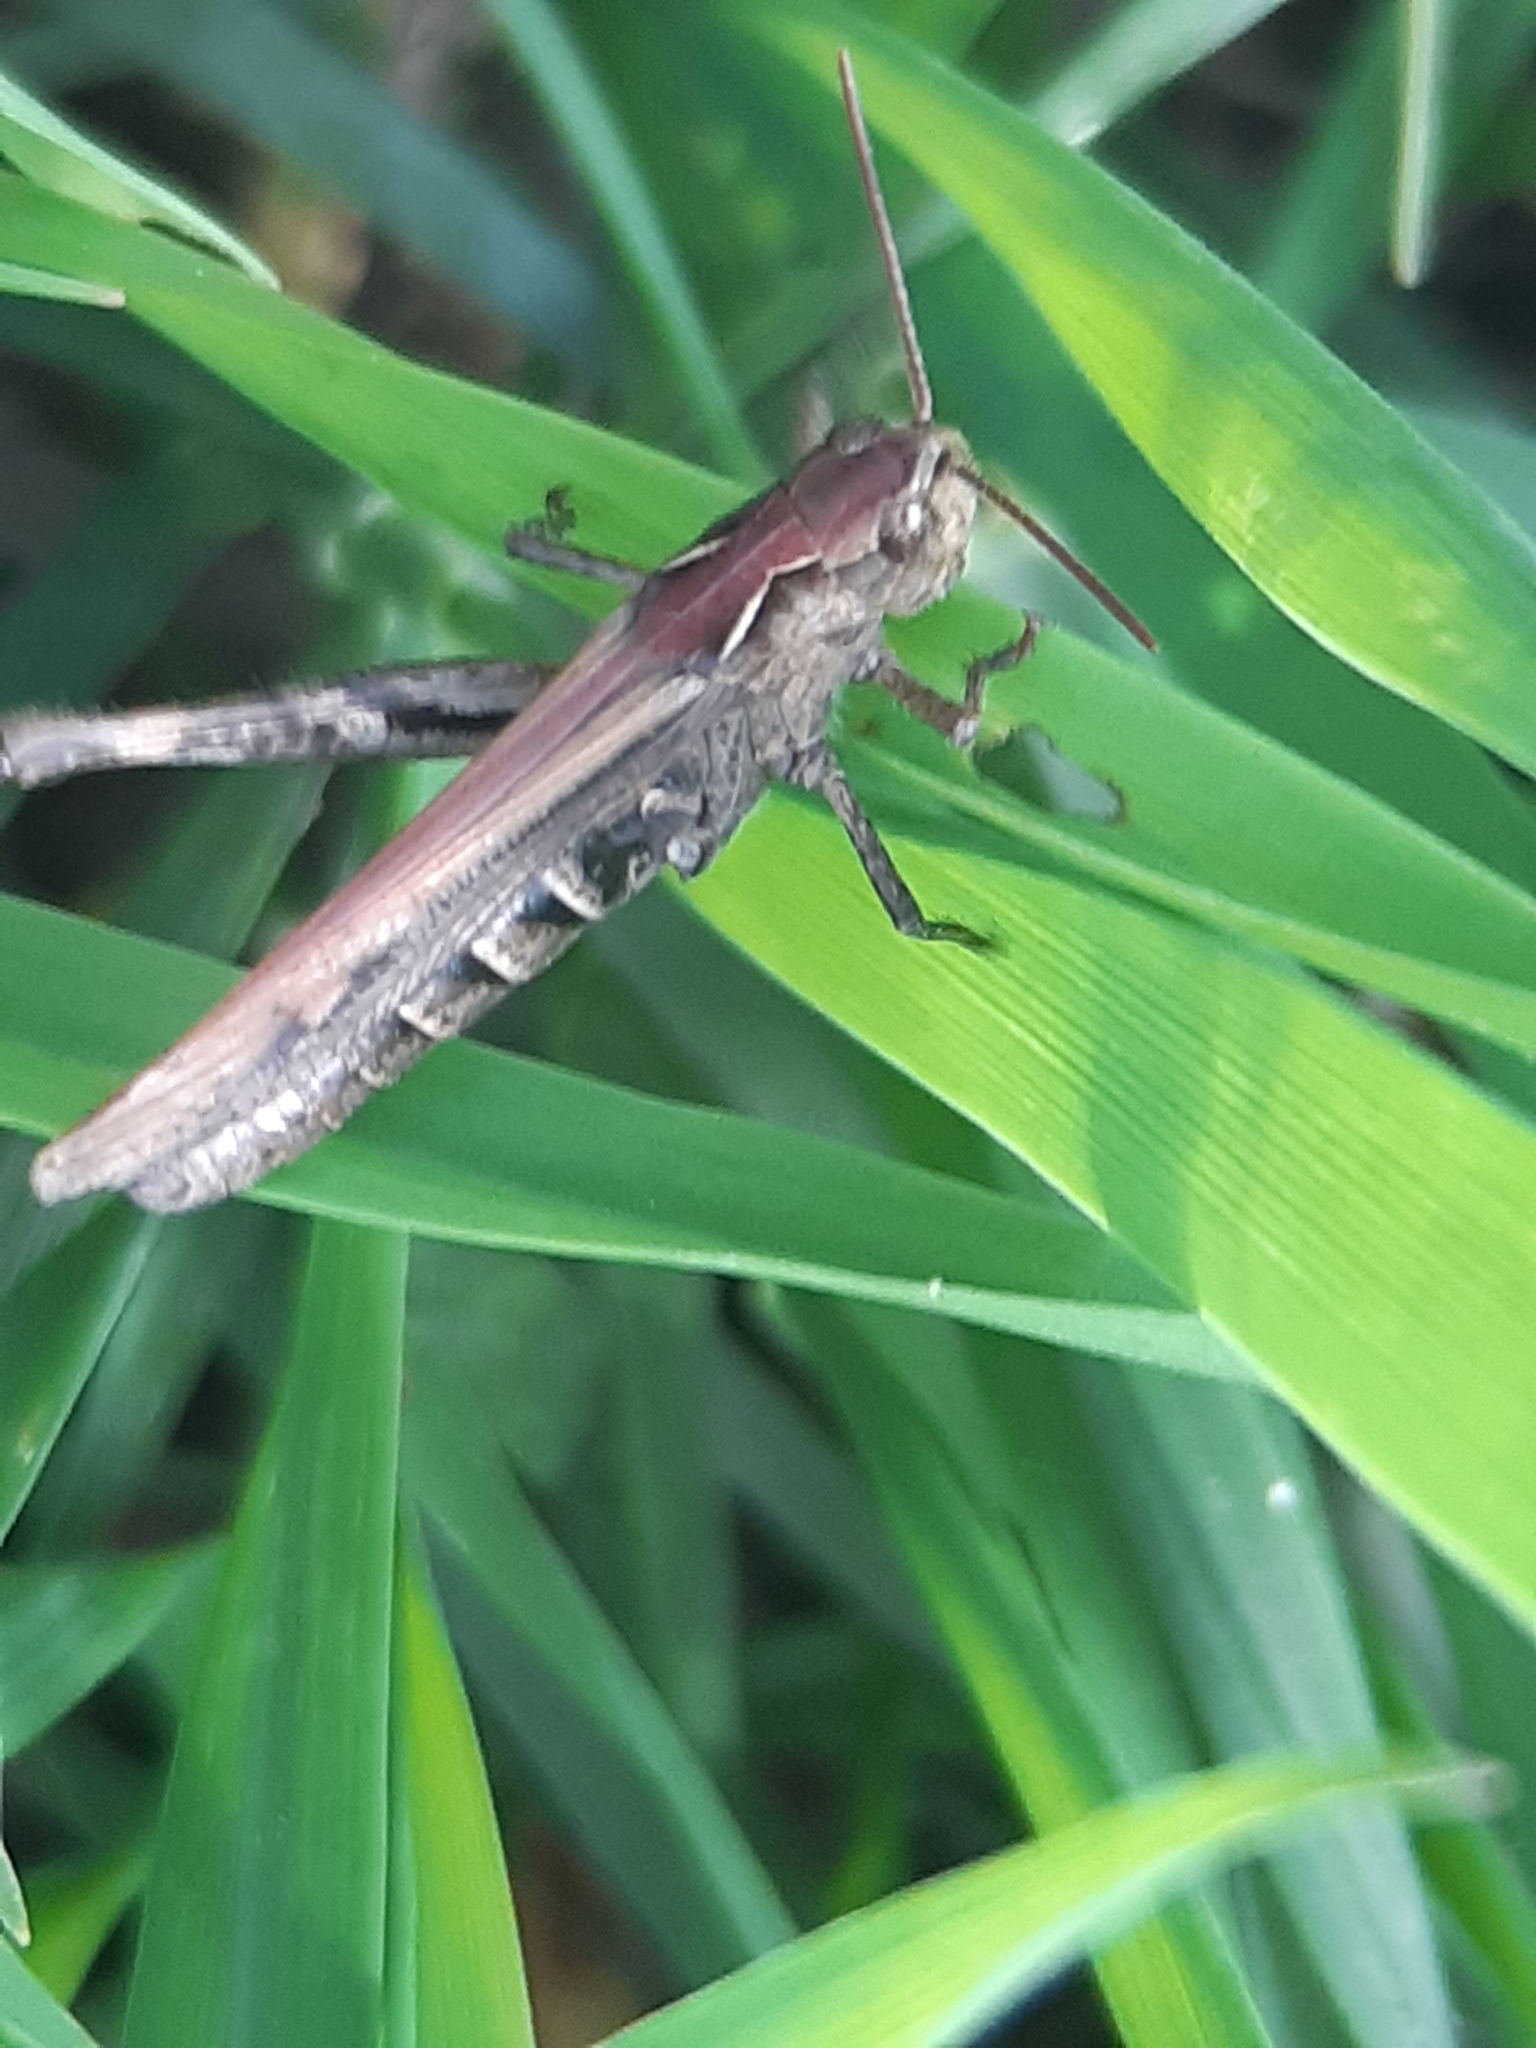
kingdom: Animalia
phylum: Arthropoda
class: Insecta
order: Orthoptera
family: Acrididae
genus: Glyptobothrus
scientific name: Glyptobothrus
